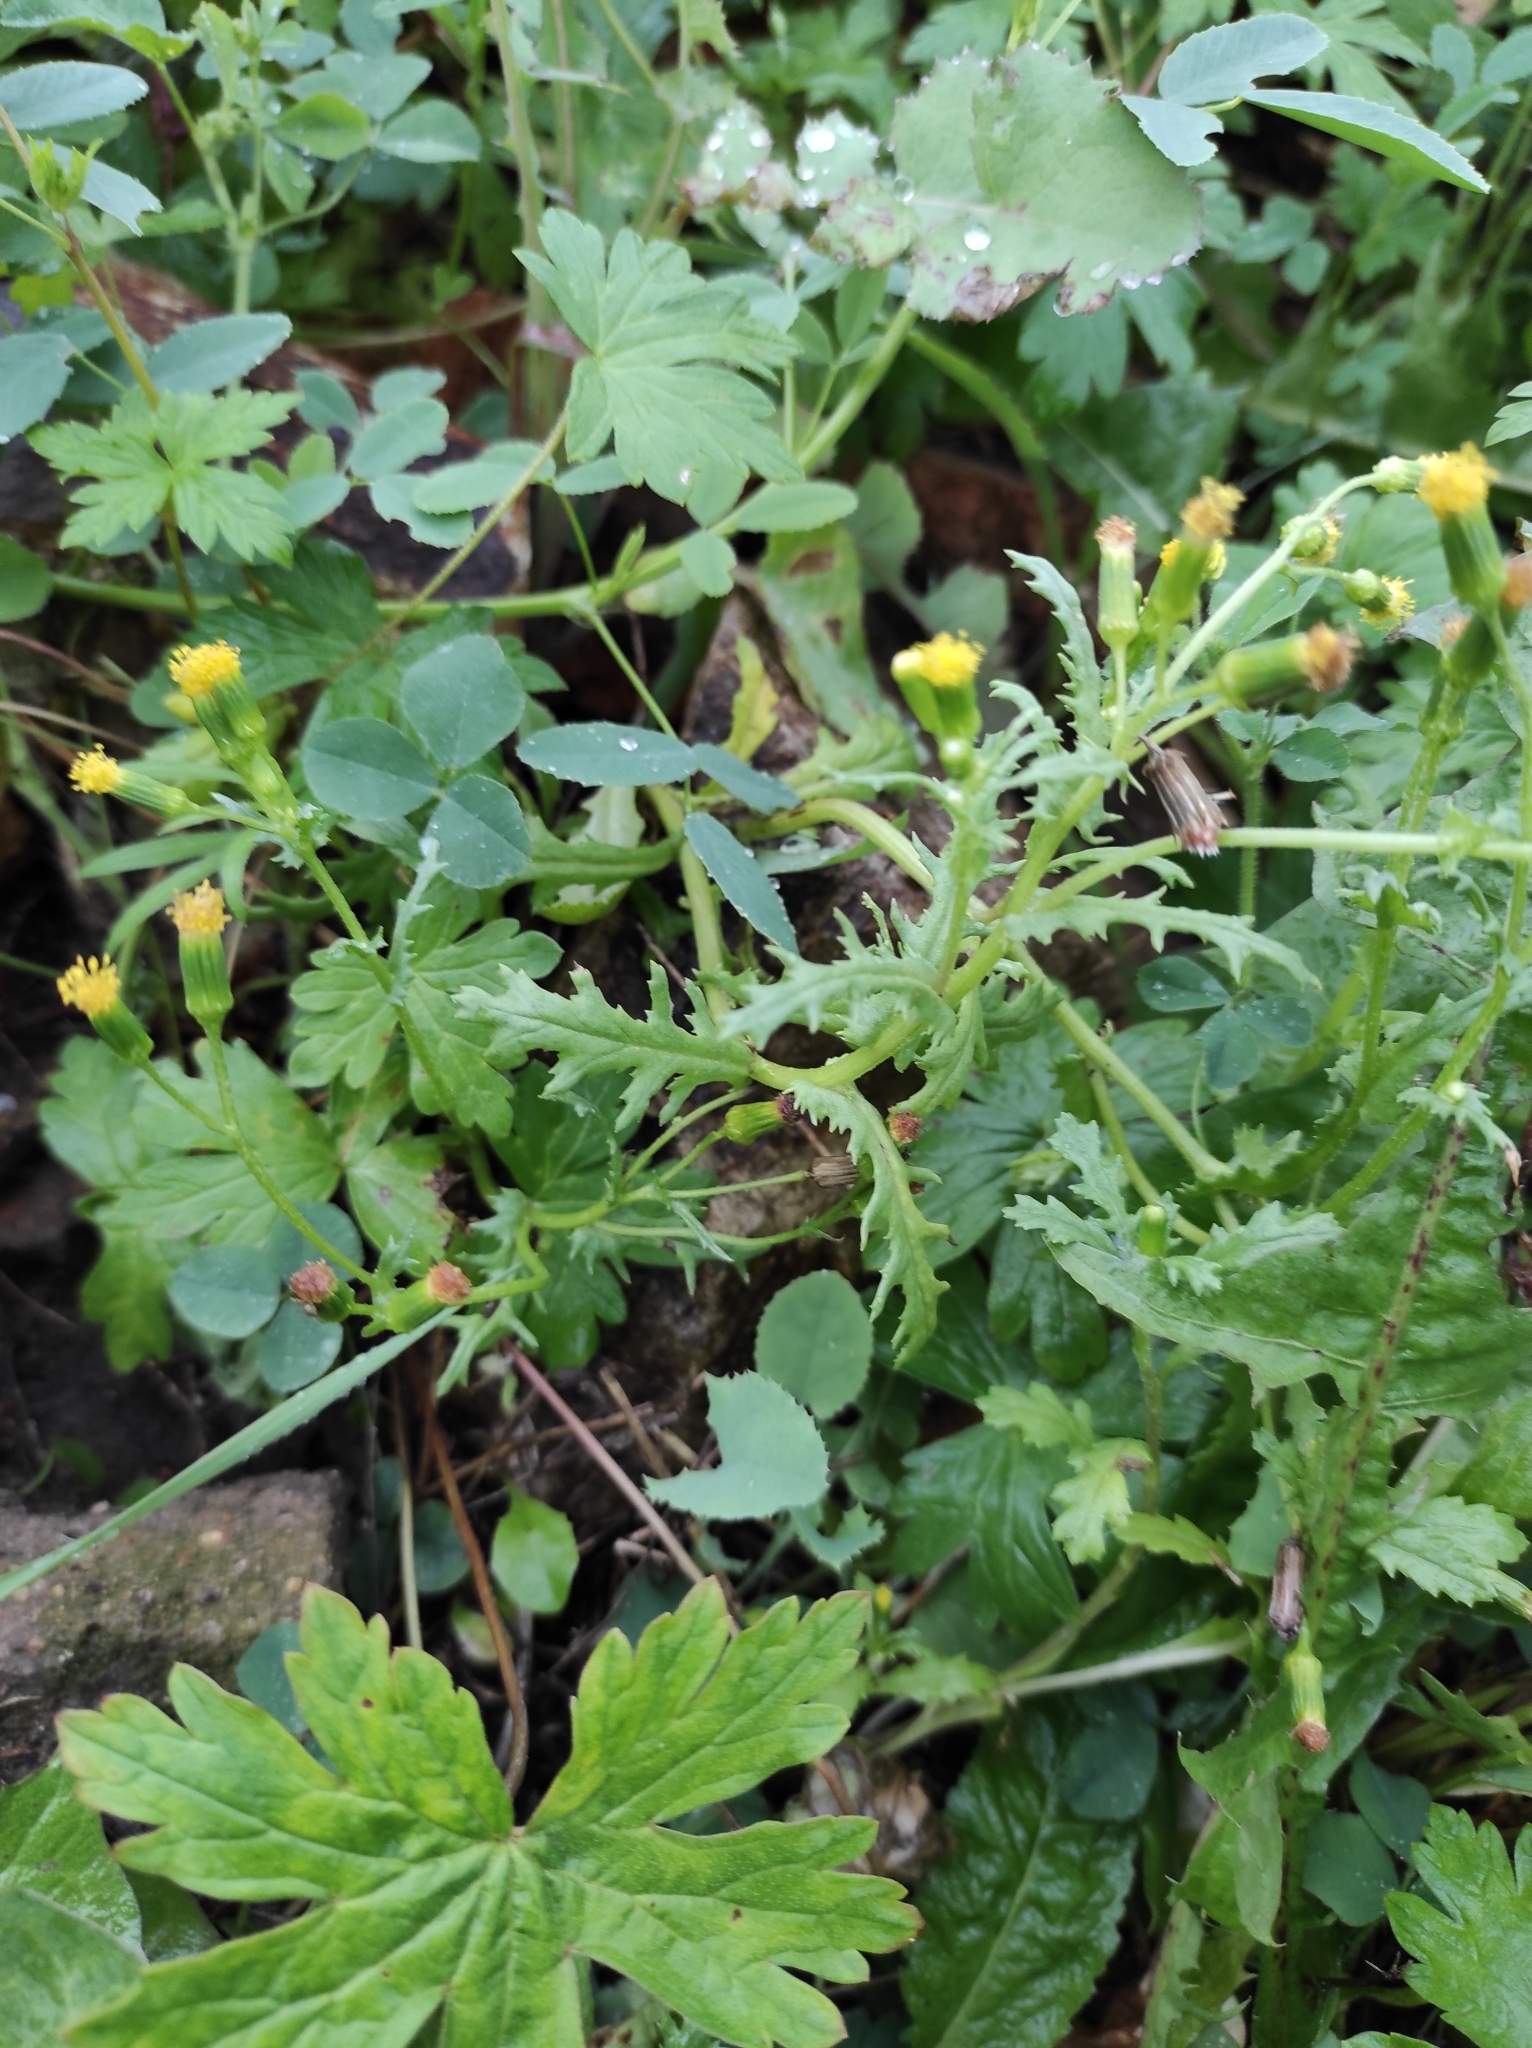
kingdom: Plantae
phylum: Tracheophyta
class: Magnoliopsida
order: Asterales
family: Asteraceae
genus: Senecio
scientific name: Senecio vulgaris
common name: Old-man-in-the-spring
